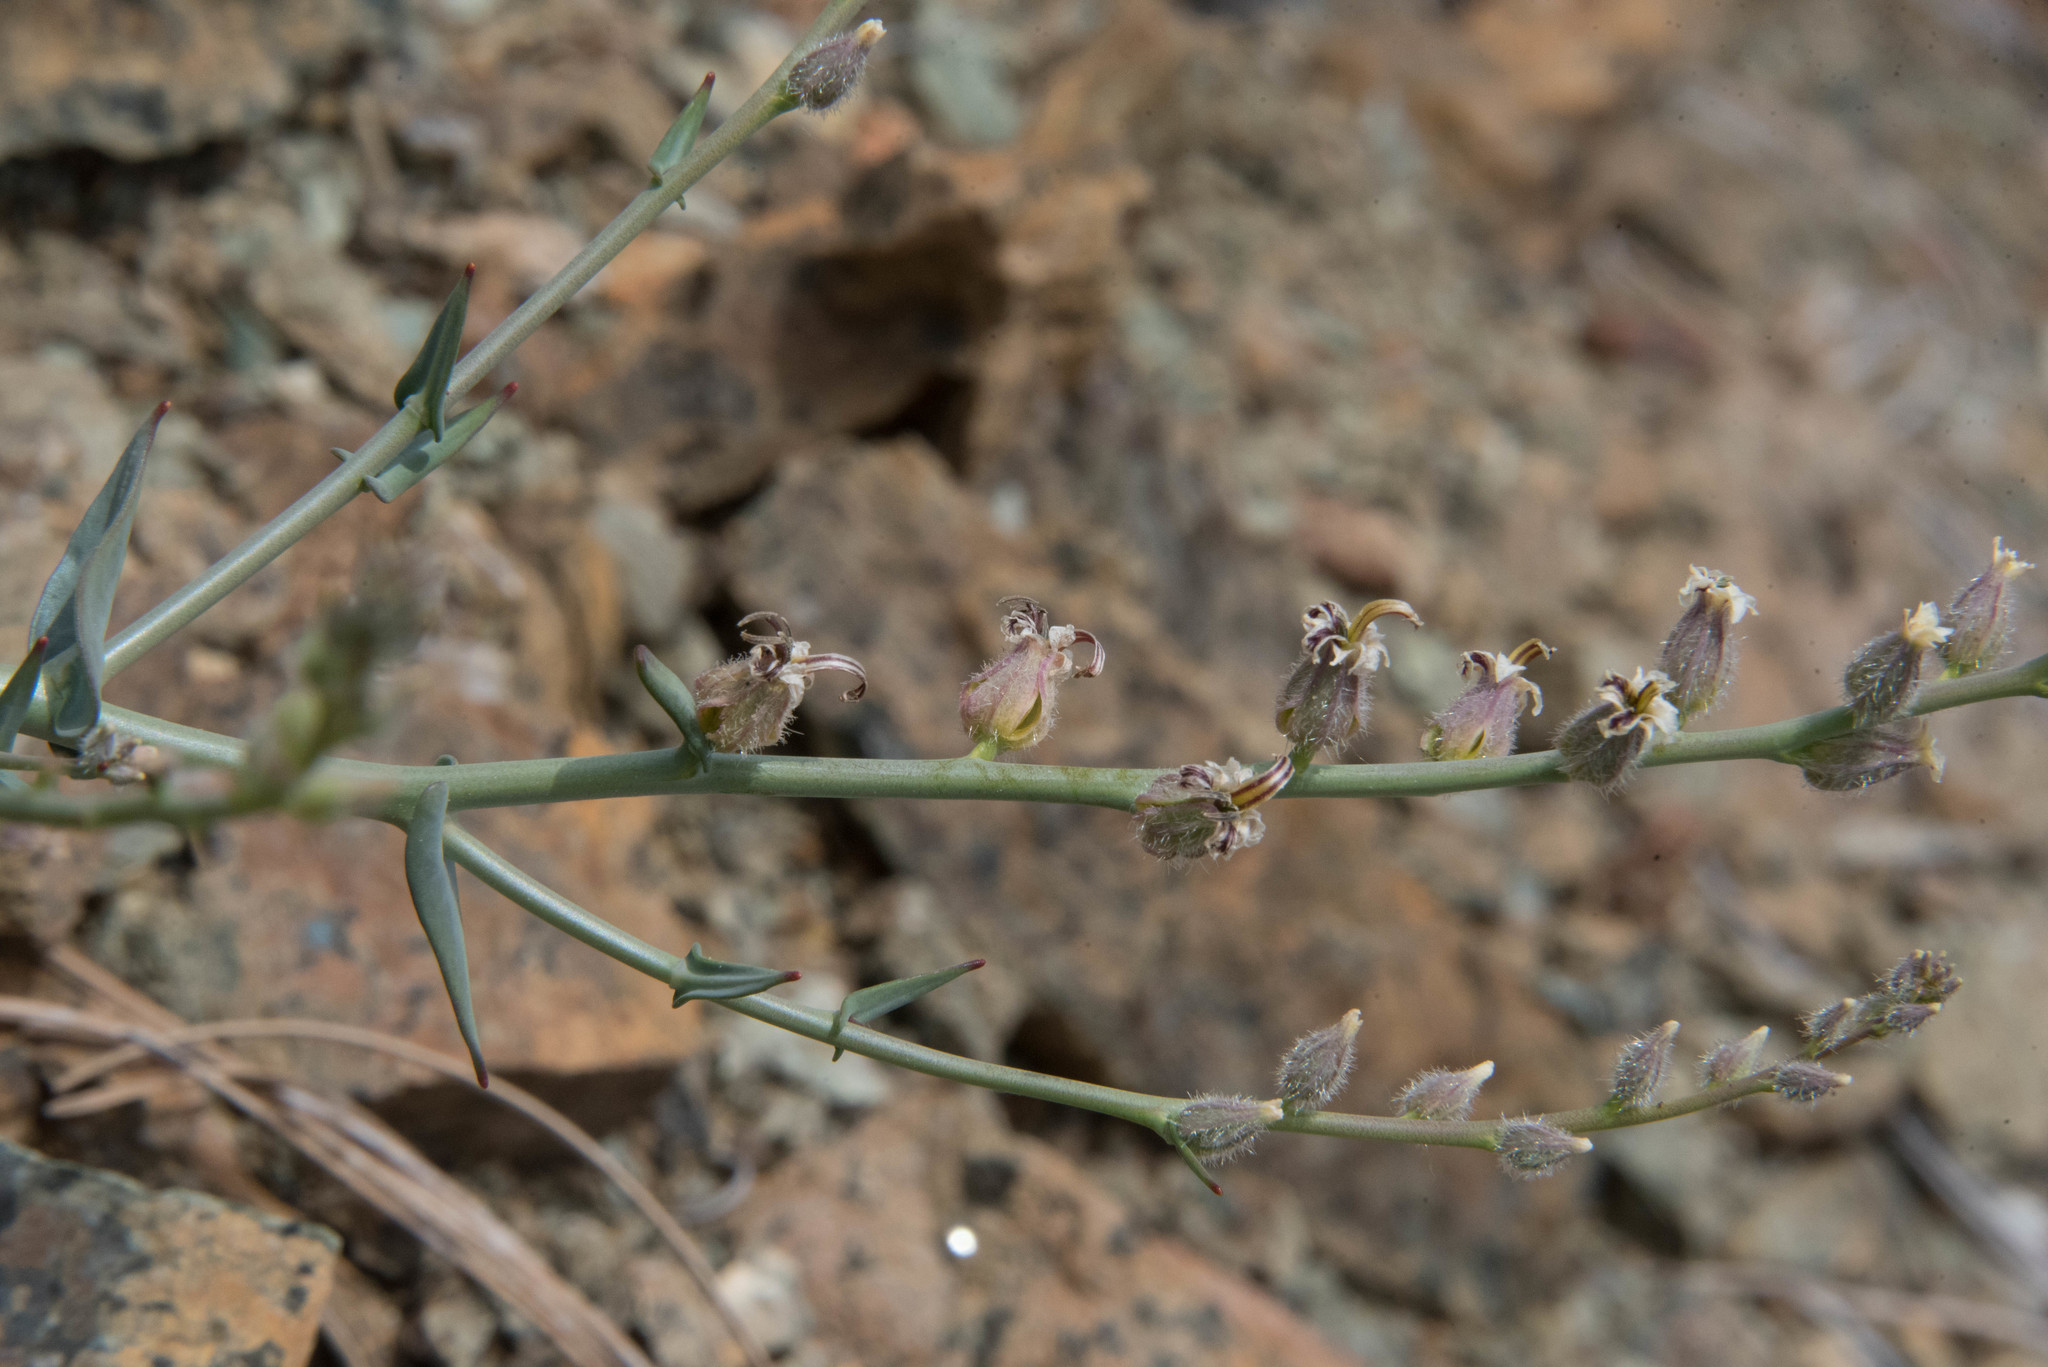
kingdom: Plantae
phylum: Tracheophyta
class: Magnoliopsida
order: Brassicales
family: Brassicaceae
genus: Streptanthus
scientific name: Streptanthus brachiatus
